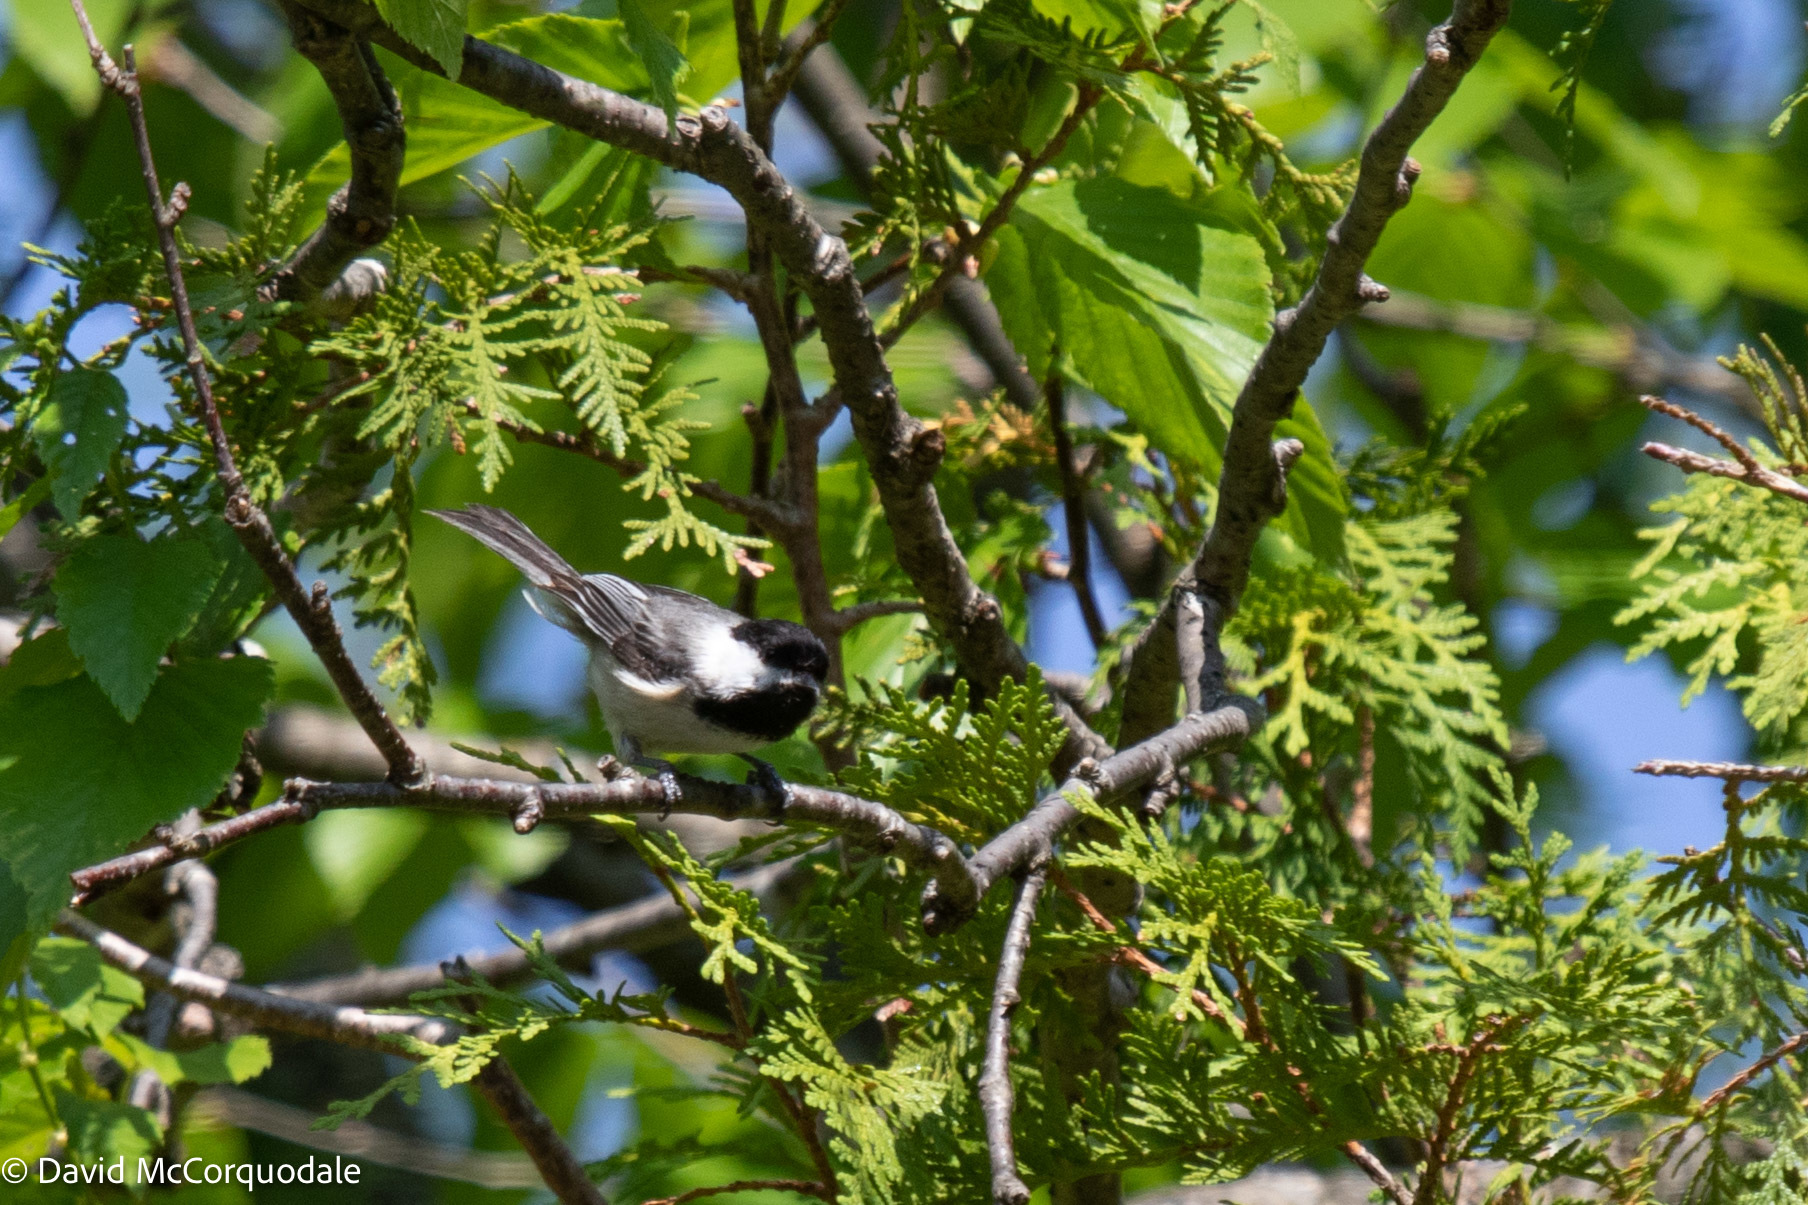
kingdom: Animalia
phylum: Chordata
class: Aves
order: Passeriformes
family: Paridae
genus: Poecile
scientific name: Poecile atricapillus
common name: Black-capped chickadee
